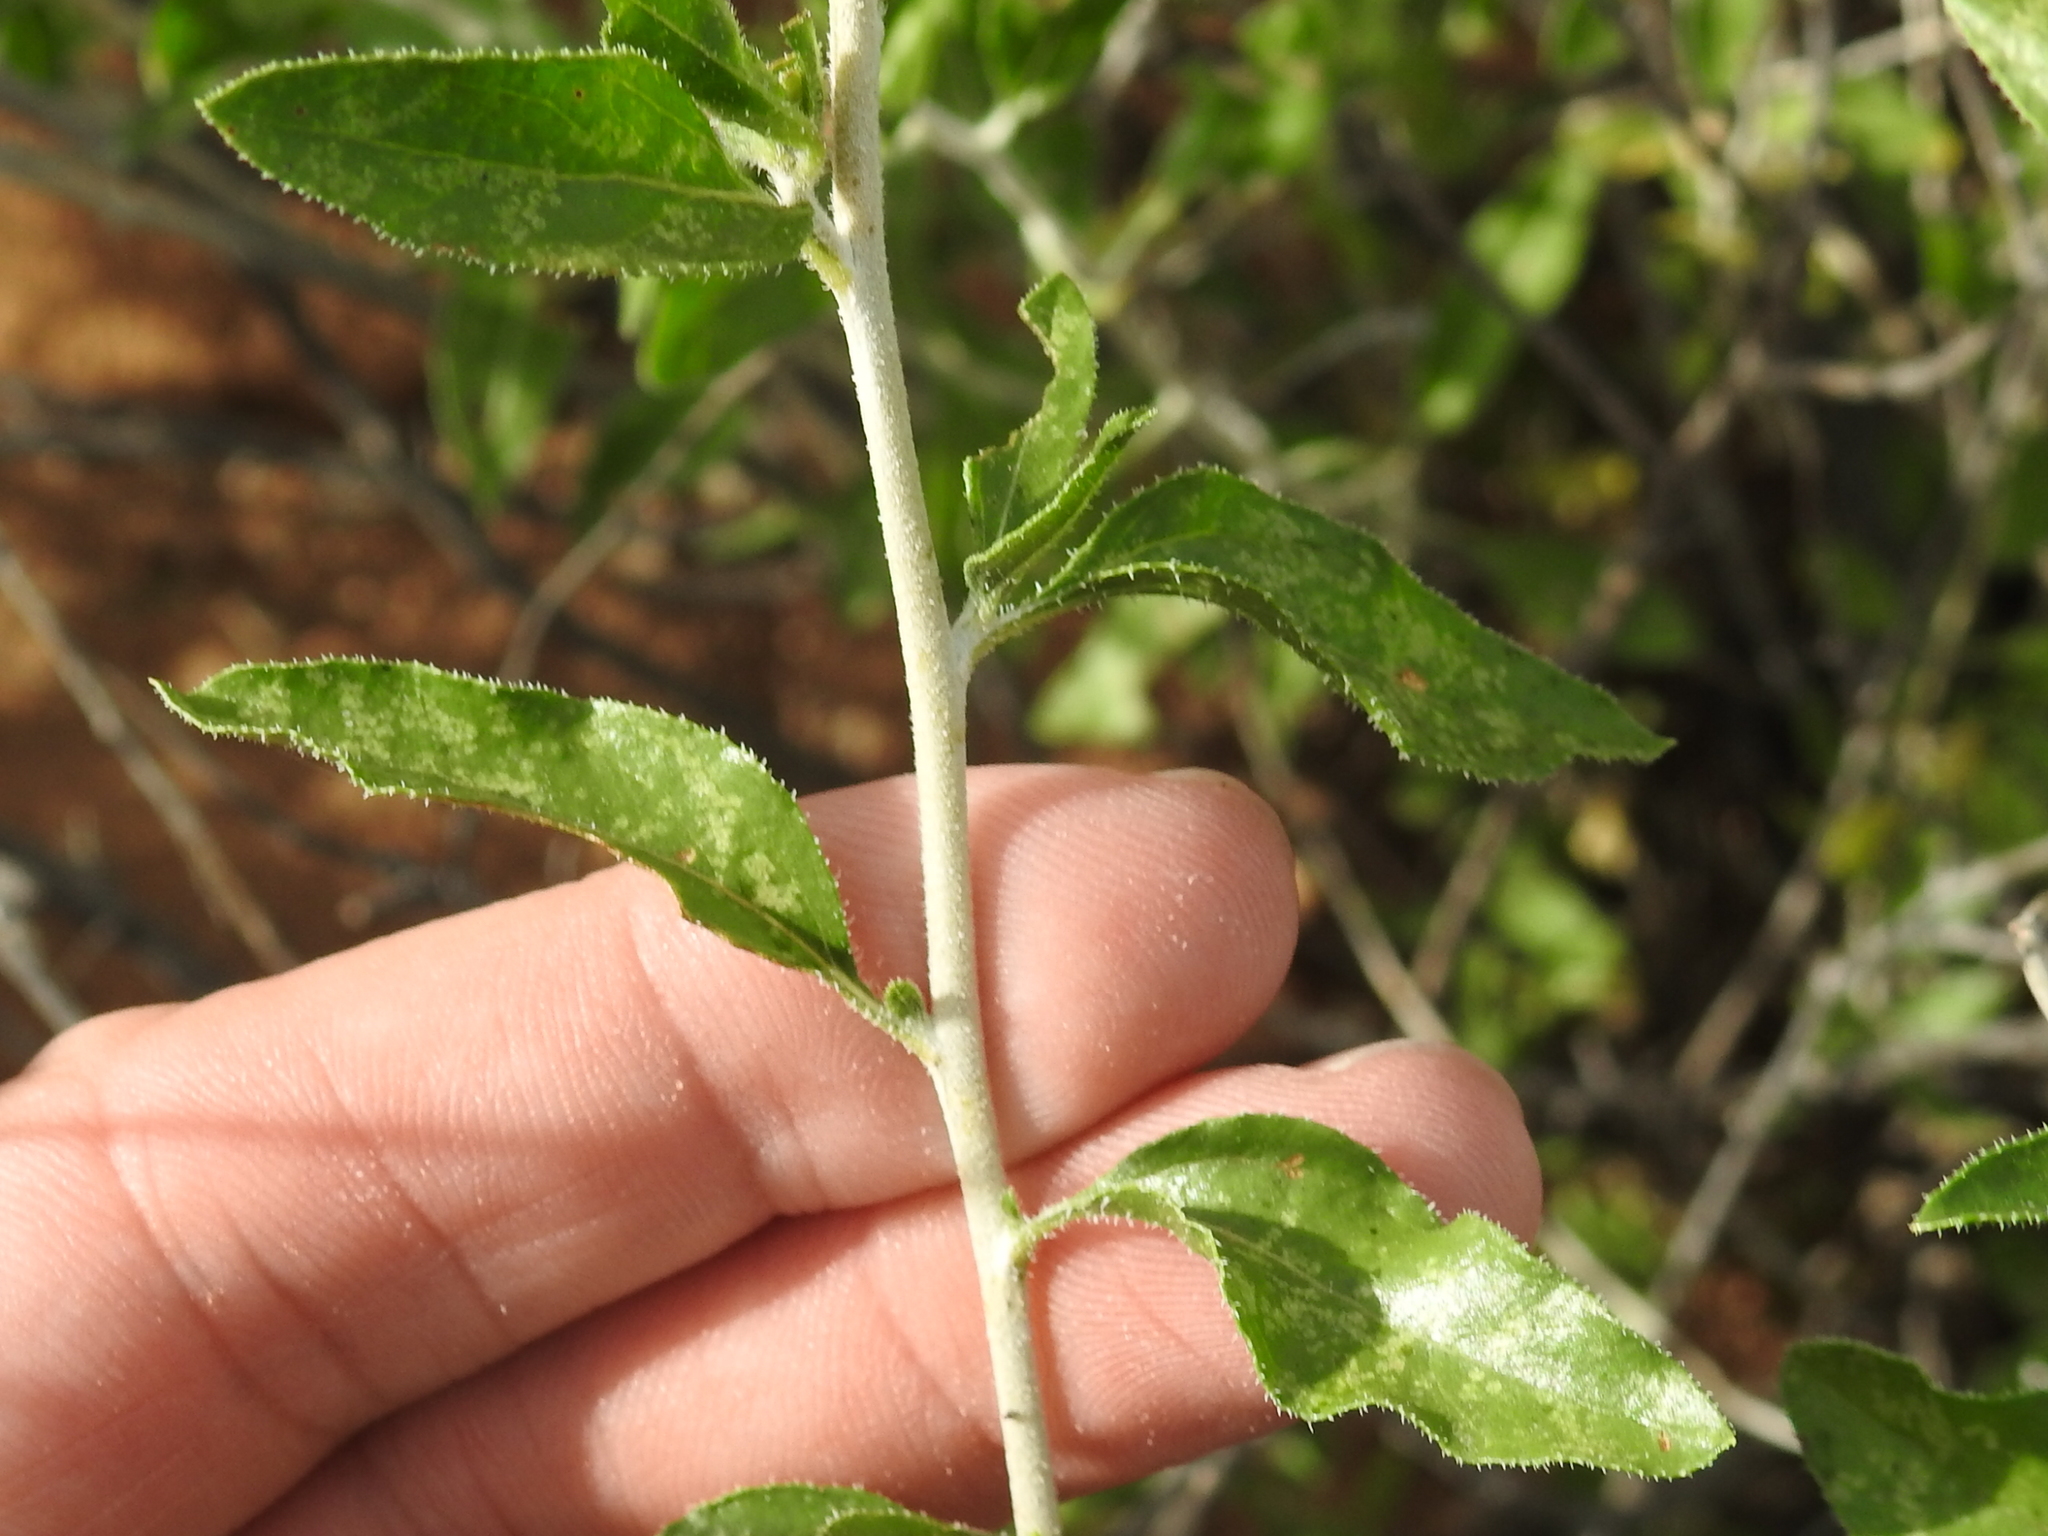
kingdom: Plantae
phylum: Tracheophyta
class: Magnoliopsida
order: Asterales
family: Asteraceae
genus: Encelia
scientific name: Encelia frutescens
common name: Bush encelia
